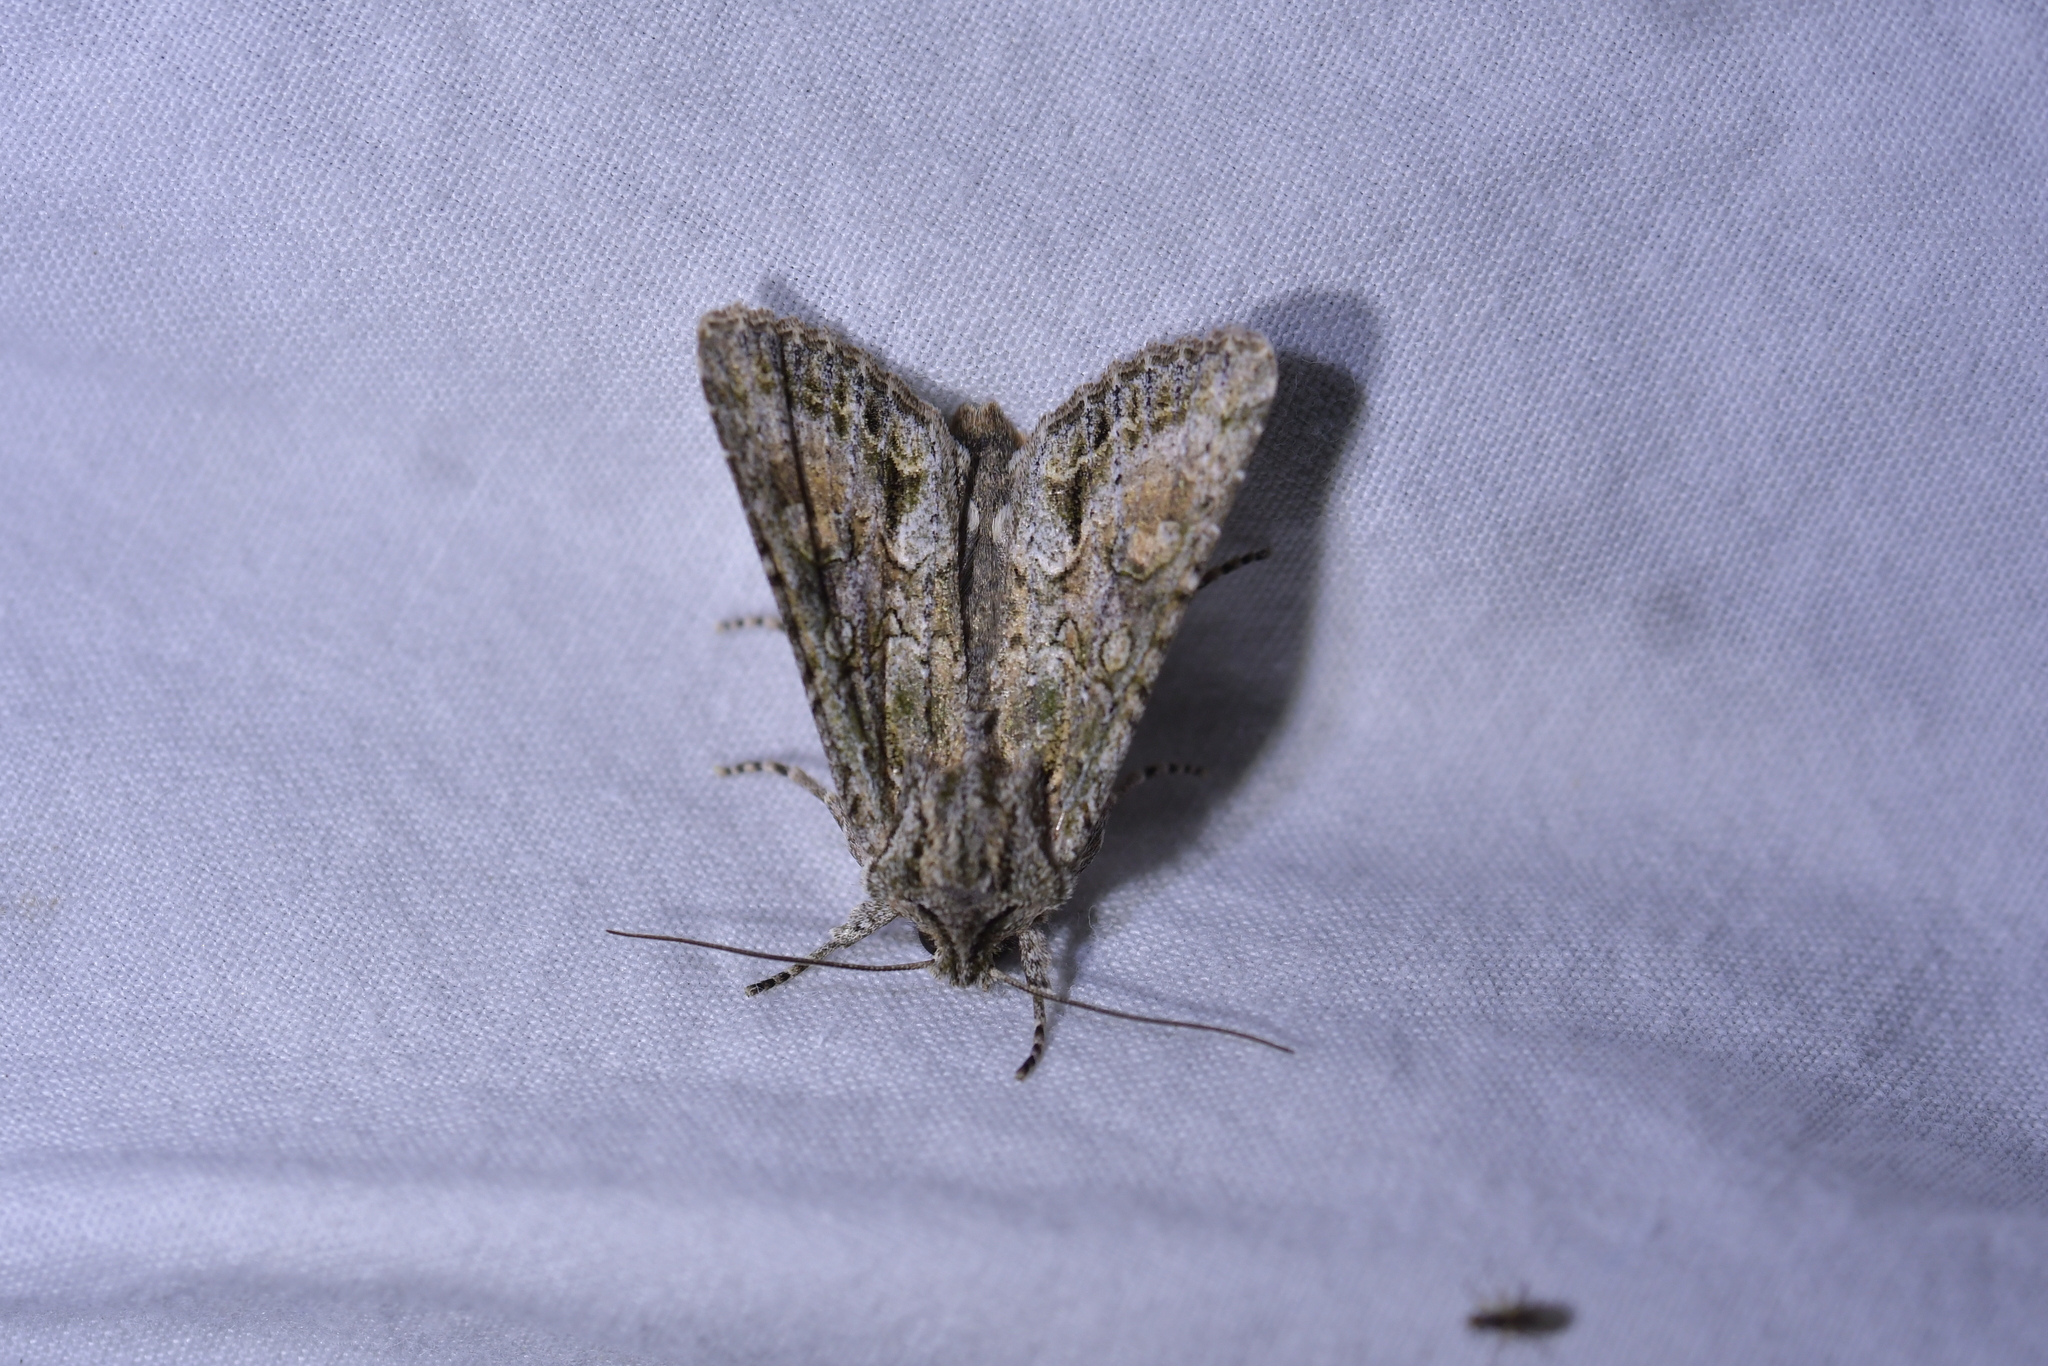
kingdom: Animalia
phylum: Arthropoda
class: Insecta
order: Lepidoptera
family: Noctuidae
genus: Ichneutica
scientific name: Ichneutica mutans
